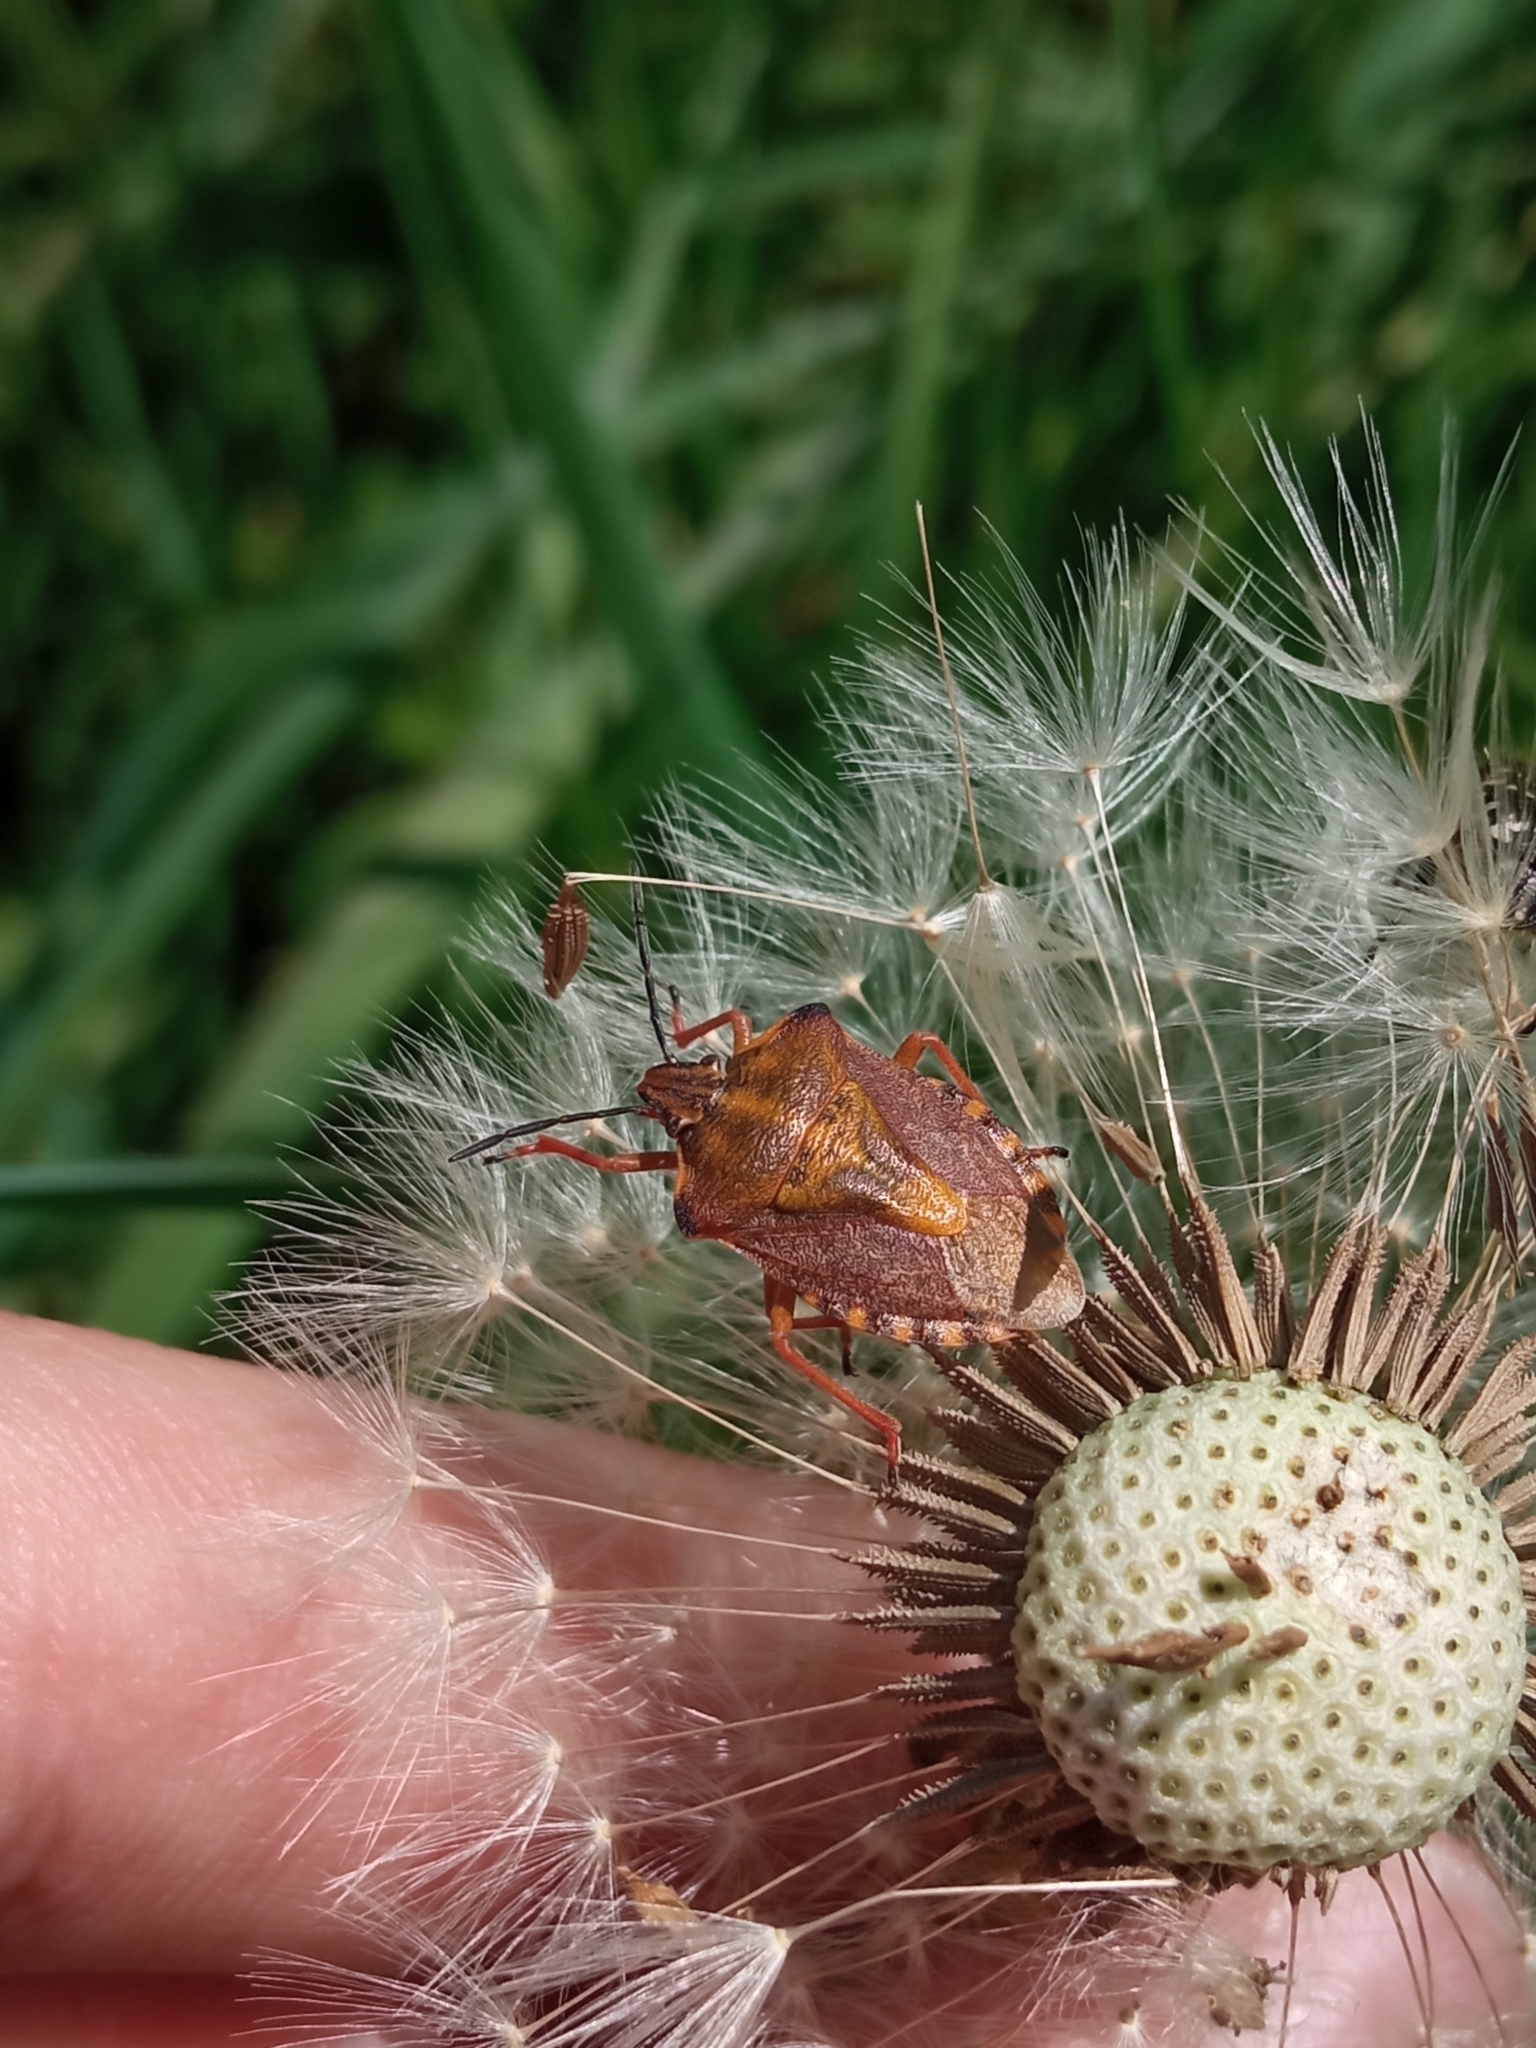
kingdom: Animalia
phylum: Arthropoda
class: Insecta
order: Hemiptera
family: Pentatomidae
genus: Carpocoris
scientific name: Carpocoris purpureipennis
